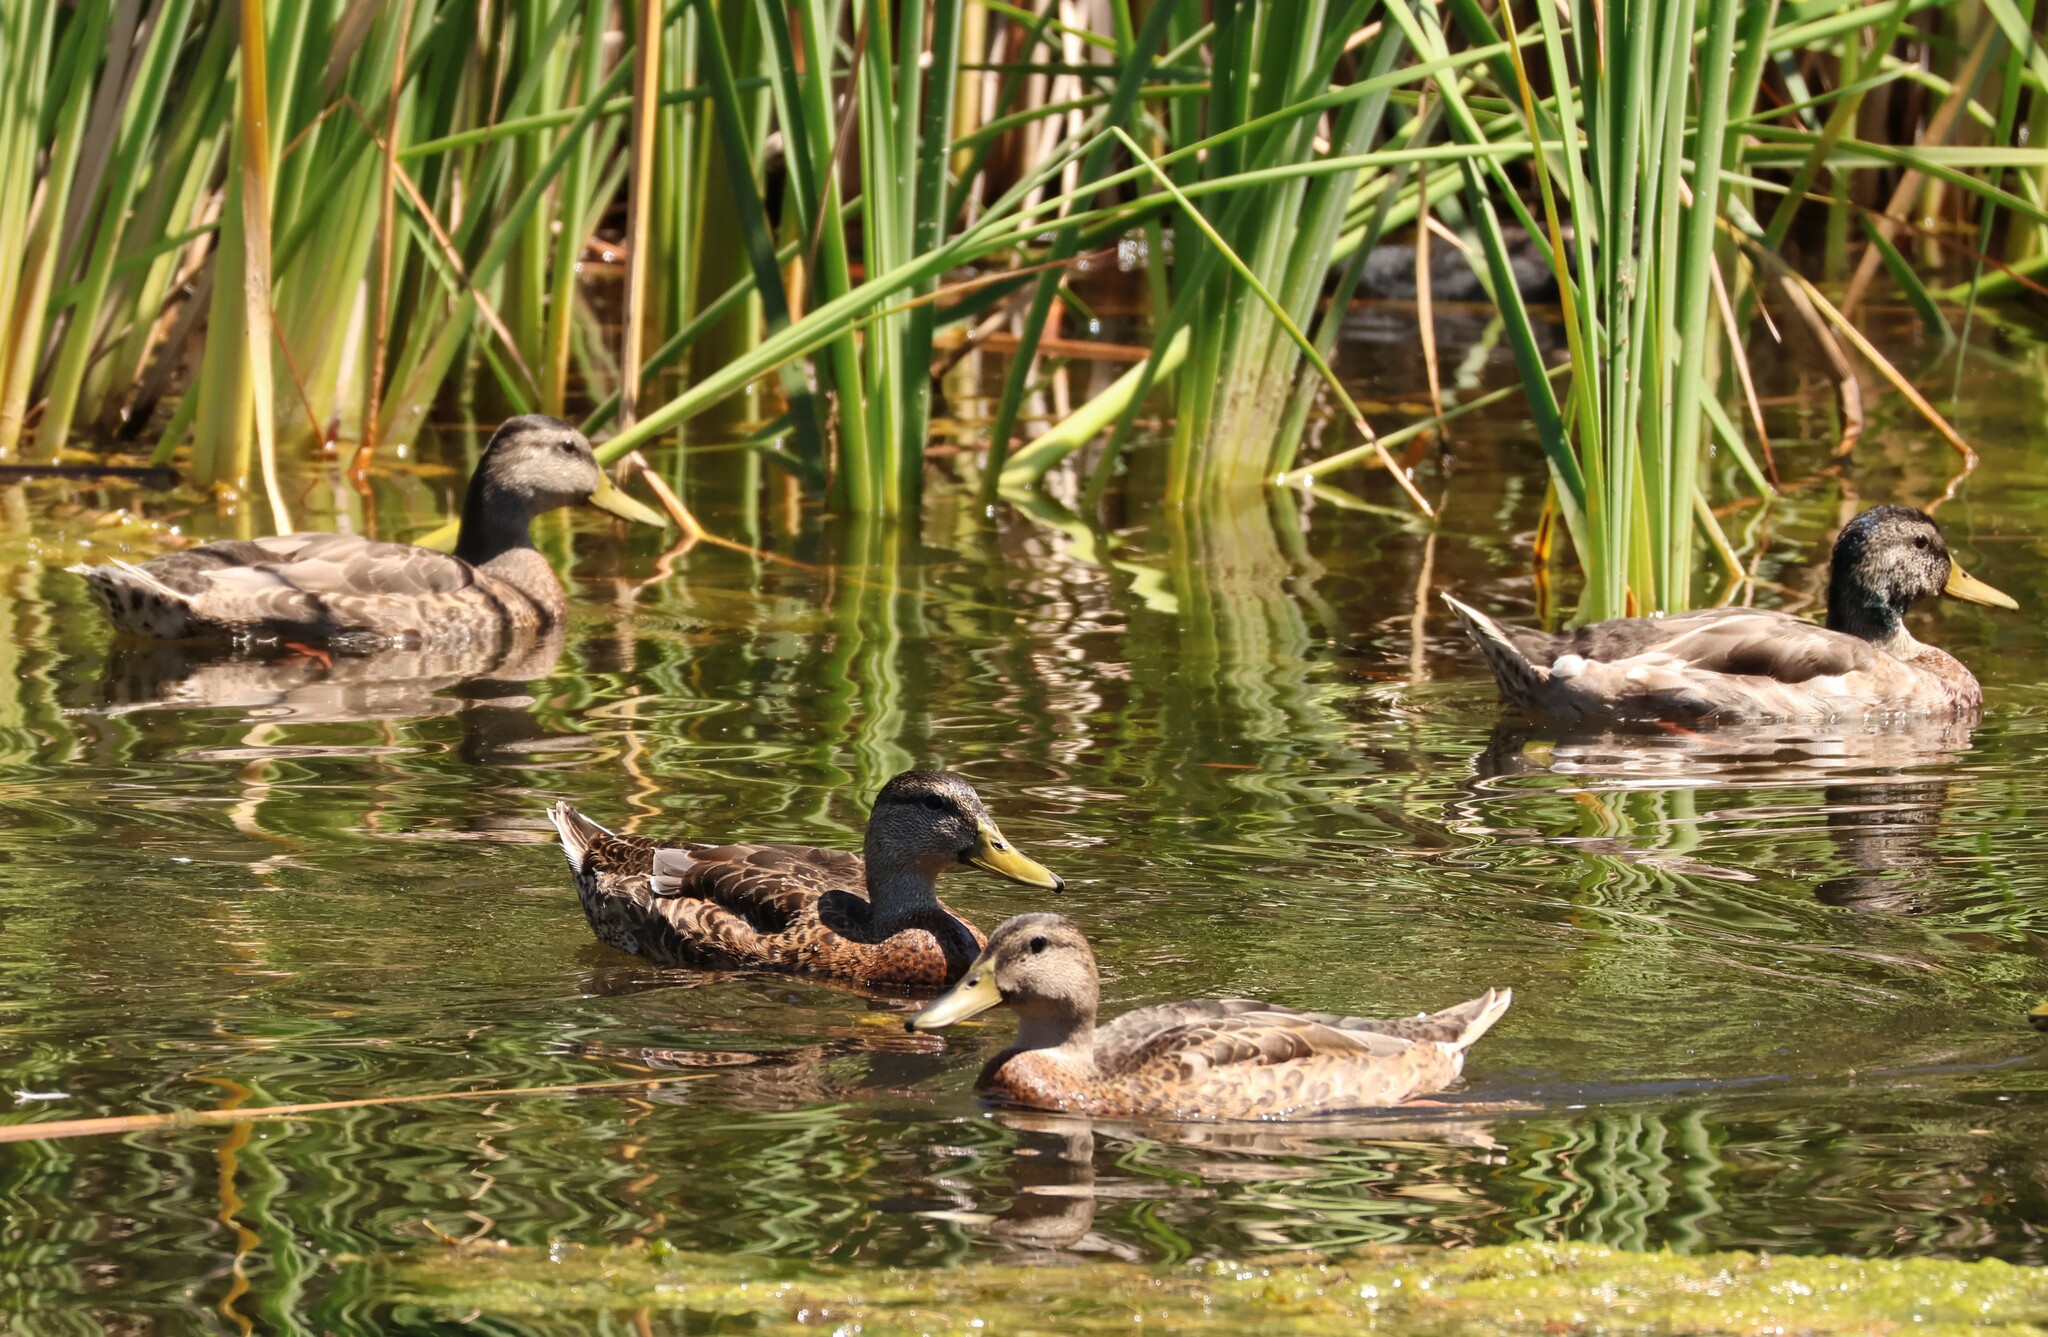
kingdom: Animalia
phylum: Chordata
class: Aves
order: Anseriformes
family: Anatidae
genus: Anas
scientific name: Anas platyrhynchos
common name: Mallard
